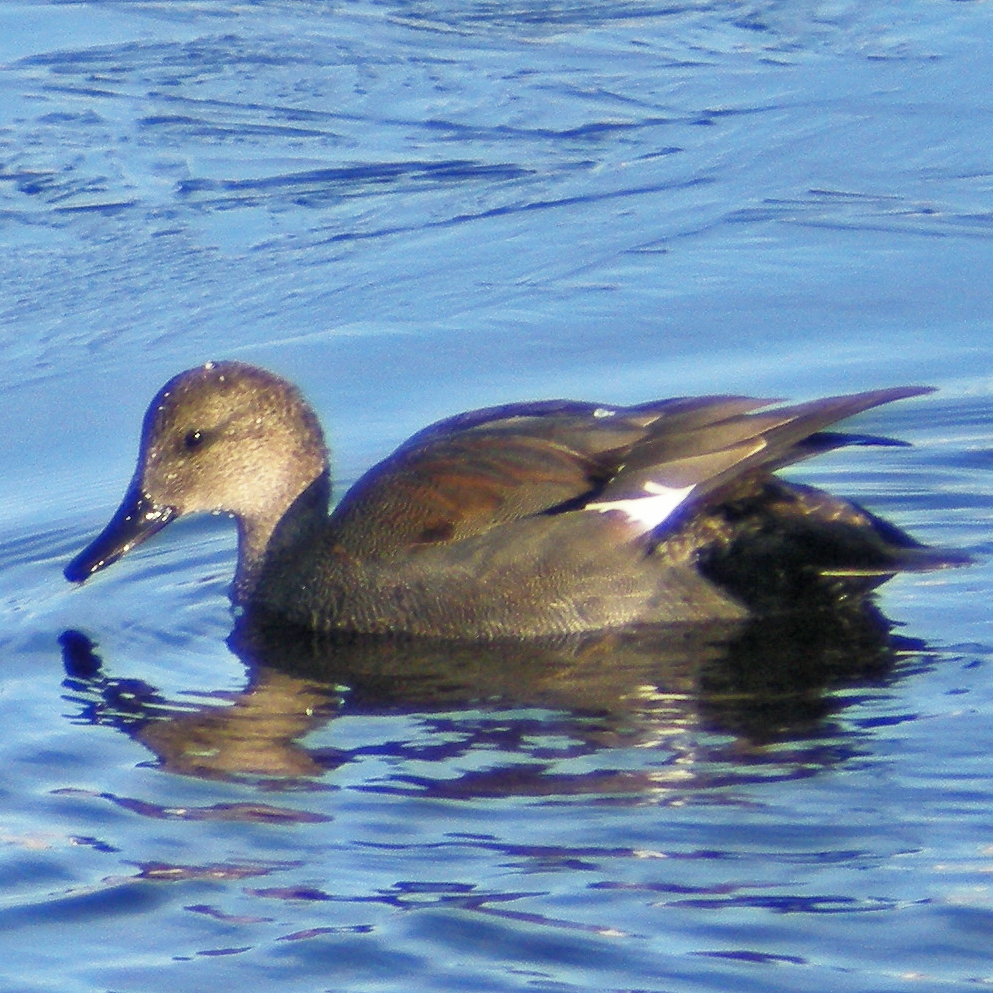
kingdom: Animalia
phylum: Chordata
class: Aves
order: Anseriformes
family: Anatidae
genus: Mareca
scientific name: Mareca strepera
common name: Gadwall
